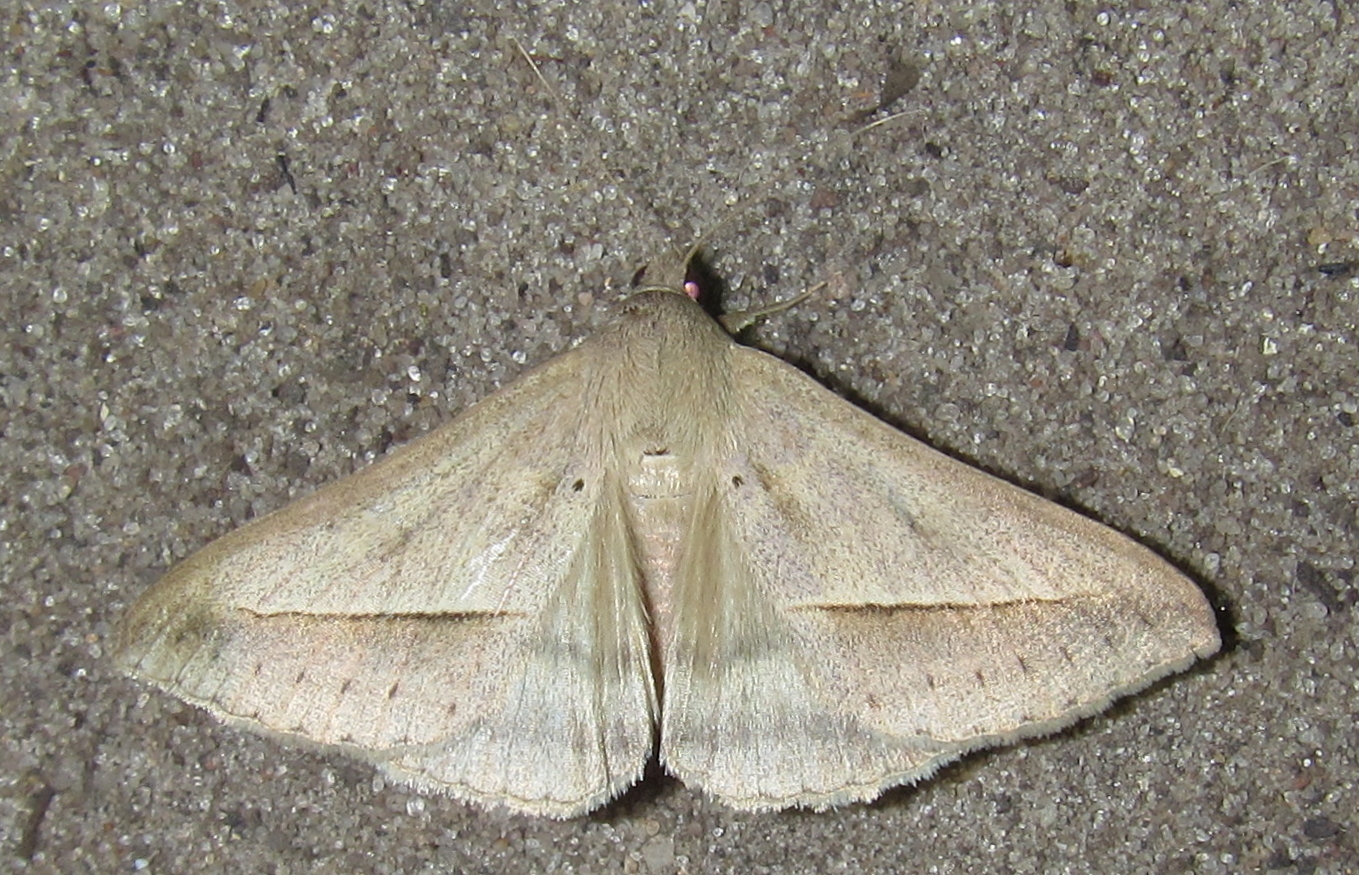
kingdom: Animalia
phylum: Arthropoda
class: Insecta
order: Lepidoptera
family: Erebidae
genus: Mocis
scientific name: Mocis proverai
